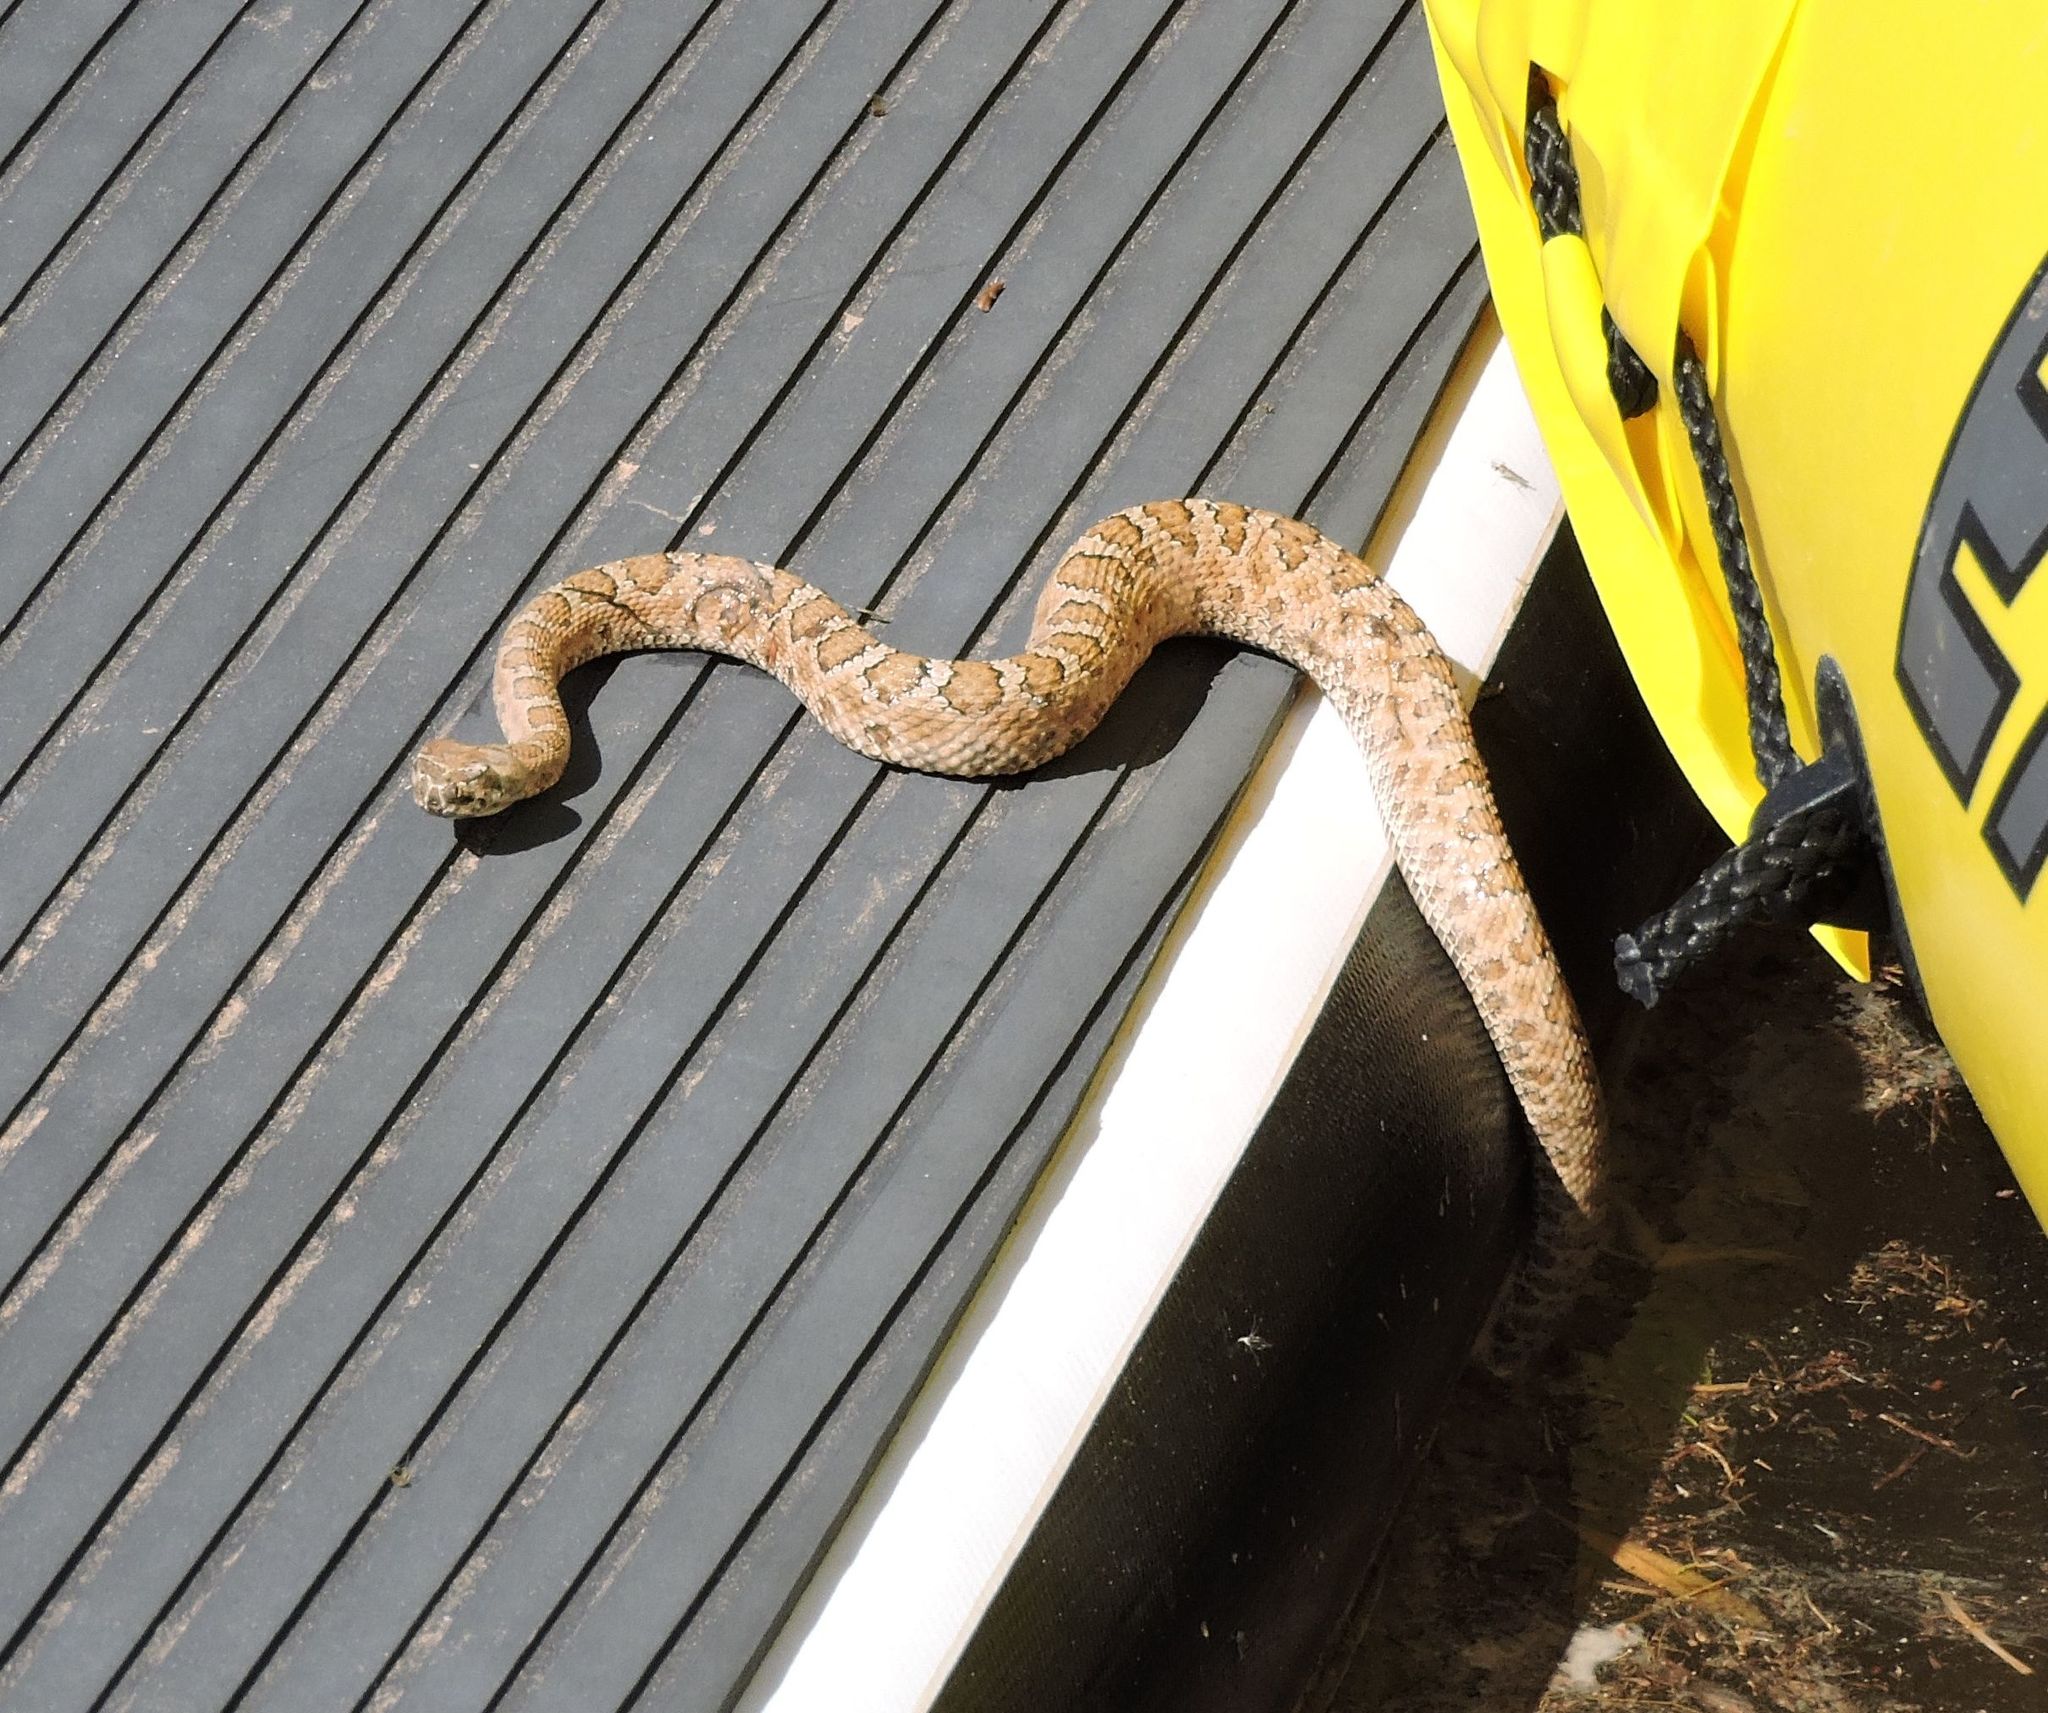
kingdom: Animalia
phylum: Chordata
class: Squamata
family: Viperidae
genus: Crotalus
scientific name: Crotalus oreganus
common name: Abyssus
